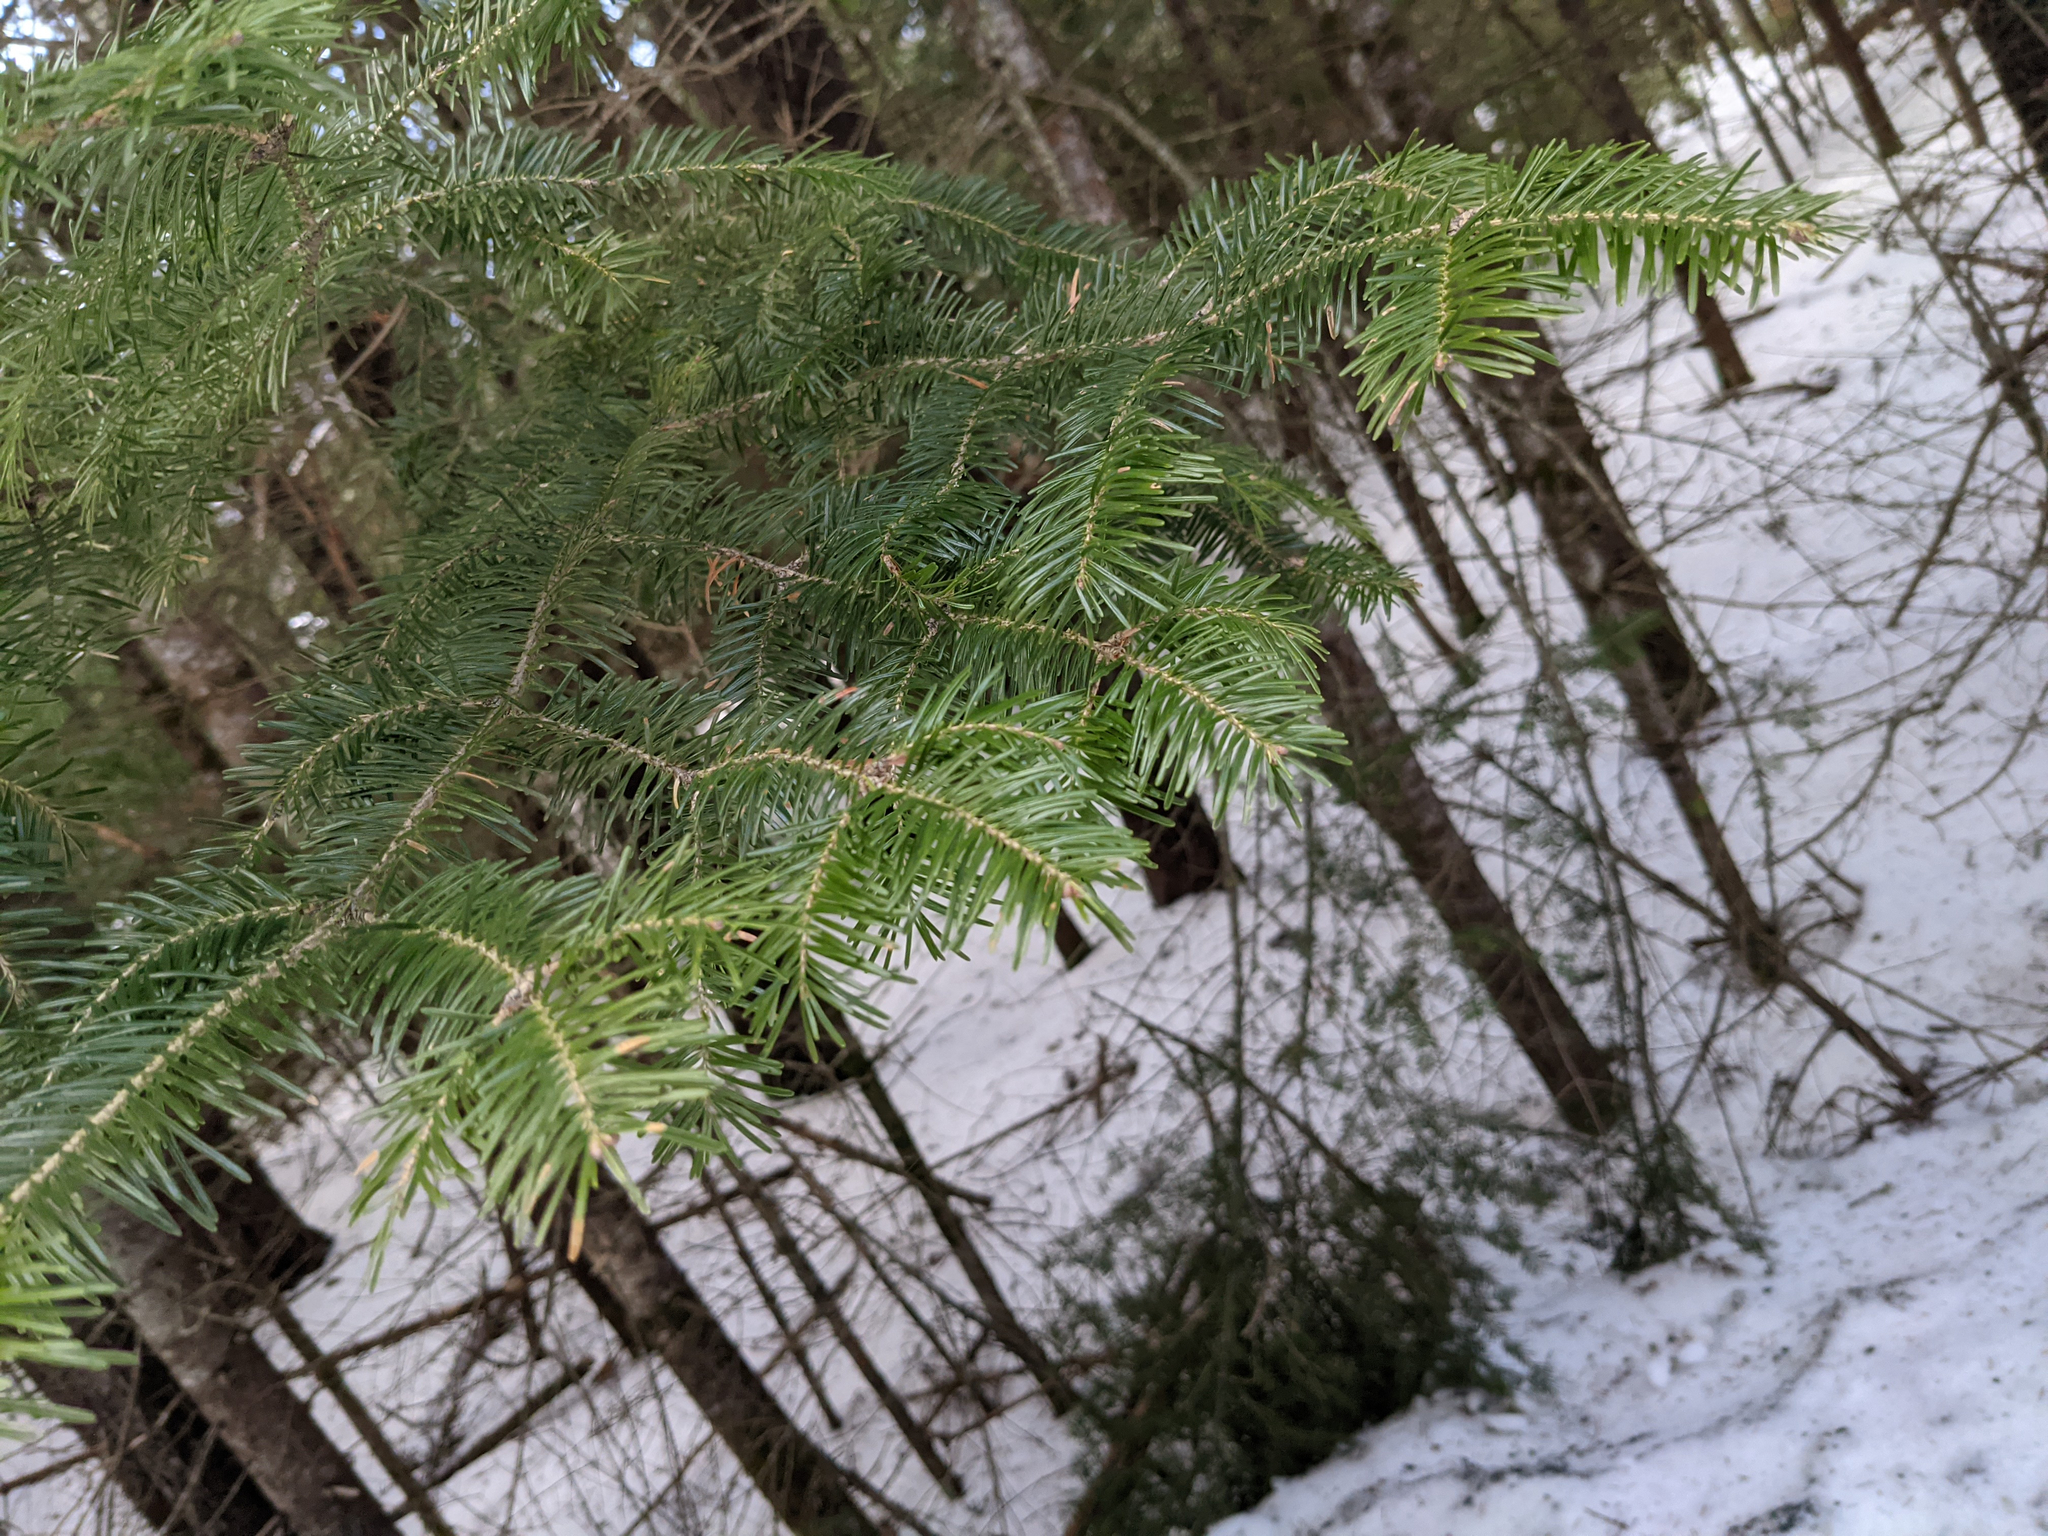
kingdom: Plantae
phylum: Tracheophyta
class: Pinopsida
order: Pinales
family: Pinaceae
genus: Abies
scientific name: Abies balsamea
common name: Balsam fir
